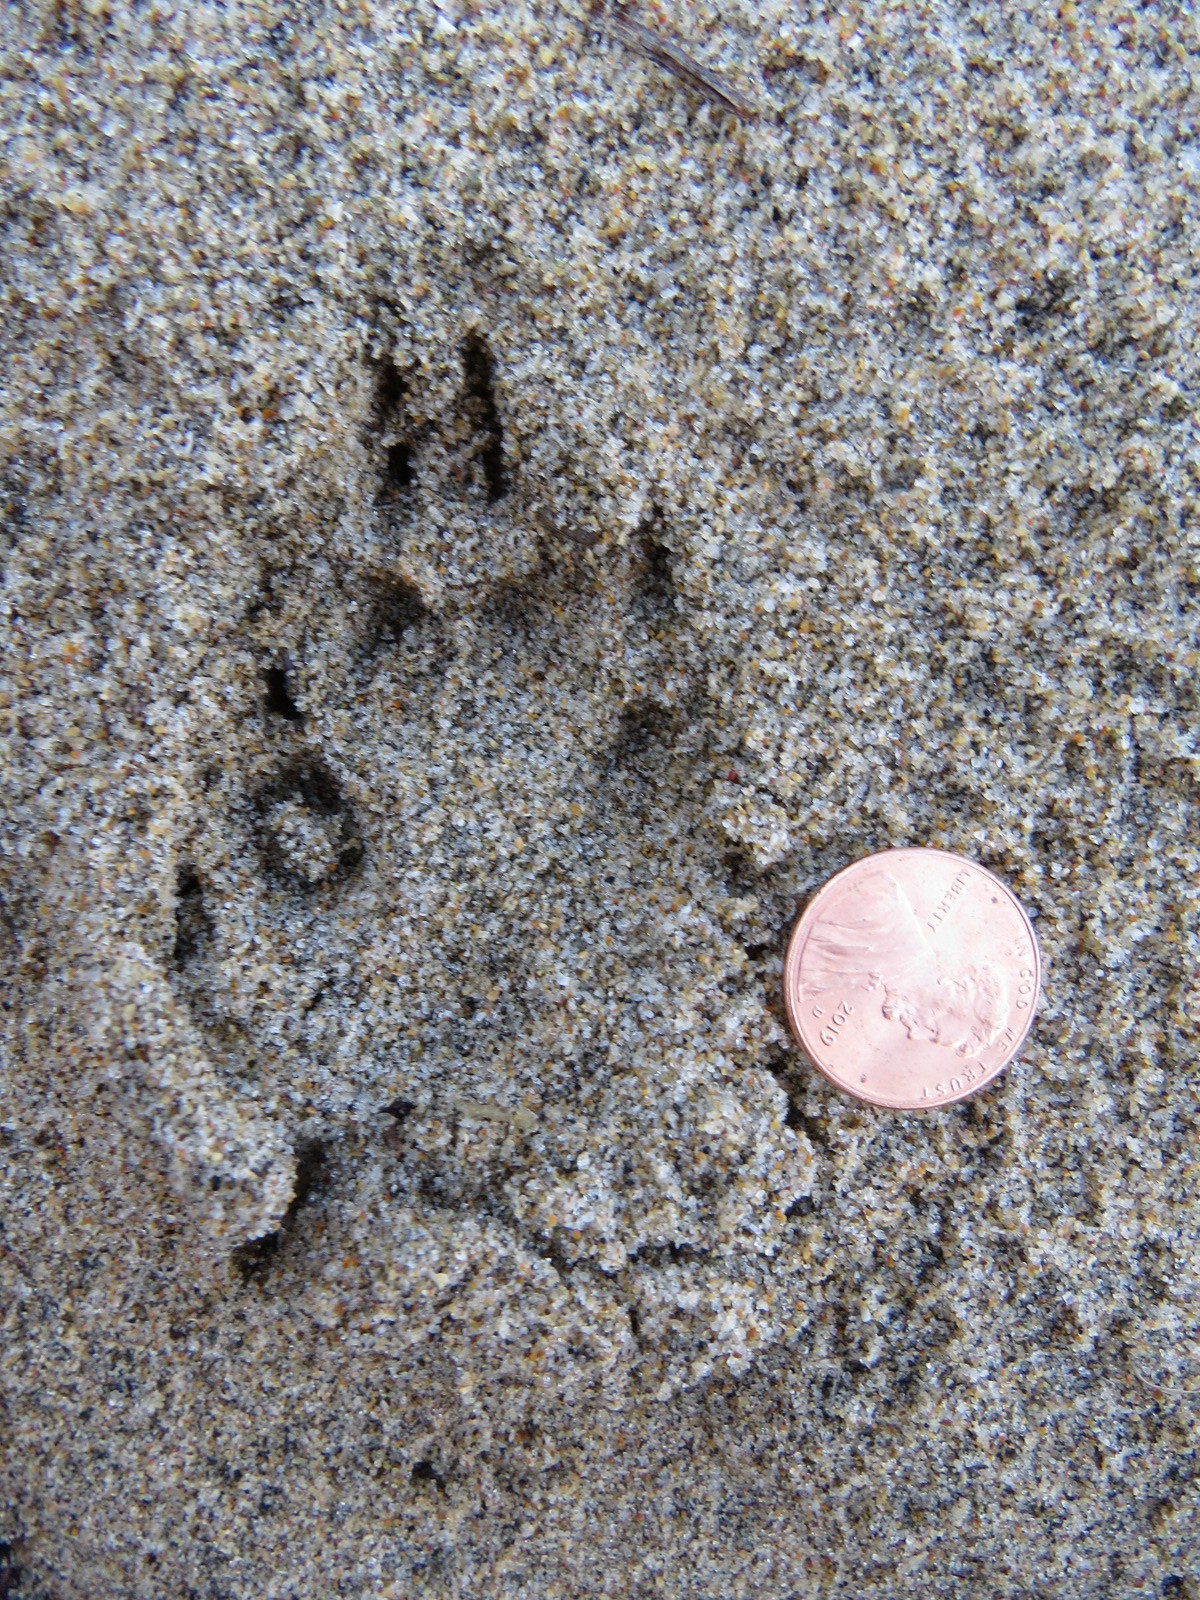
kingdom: Animalia
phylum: Chordata
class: Mammalia
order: Carnivora
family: Canidae
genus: Urocyon
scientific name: Urocyon cinereoargenteus
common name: Gray fox
